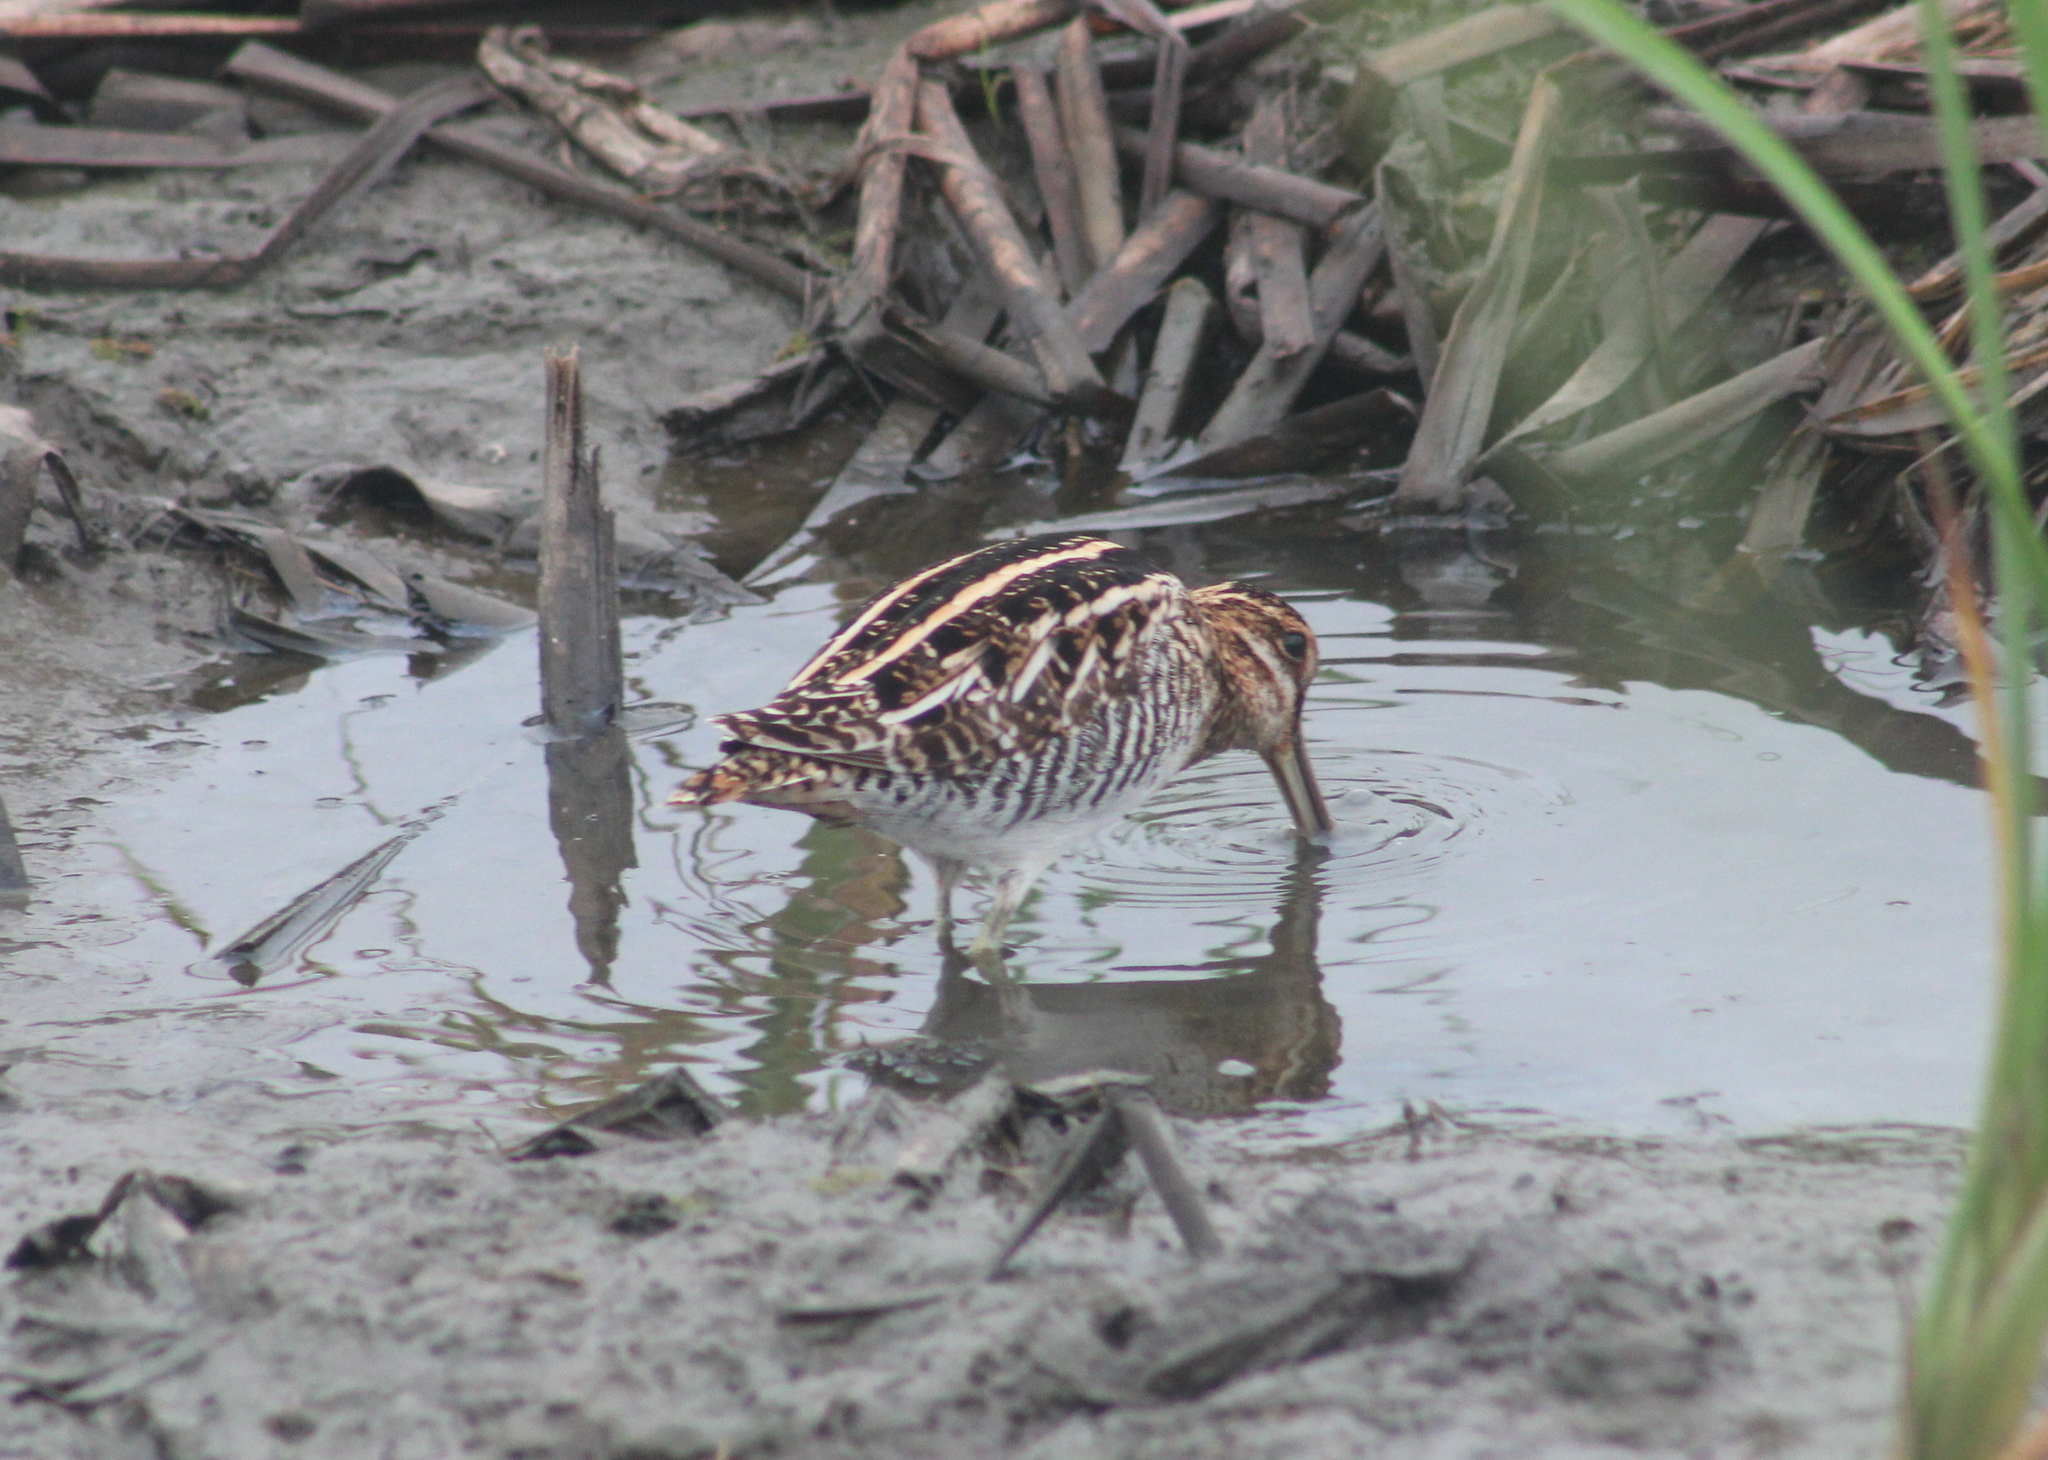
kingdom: Animalia
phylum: Chordata
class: Aves
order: Charadriiformes
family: Scolopacidae
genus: Gallinago
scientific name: Gallinago delicata
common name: Wilson's snipe
